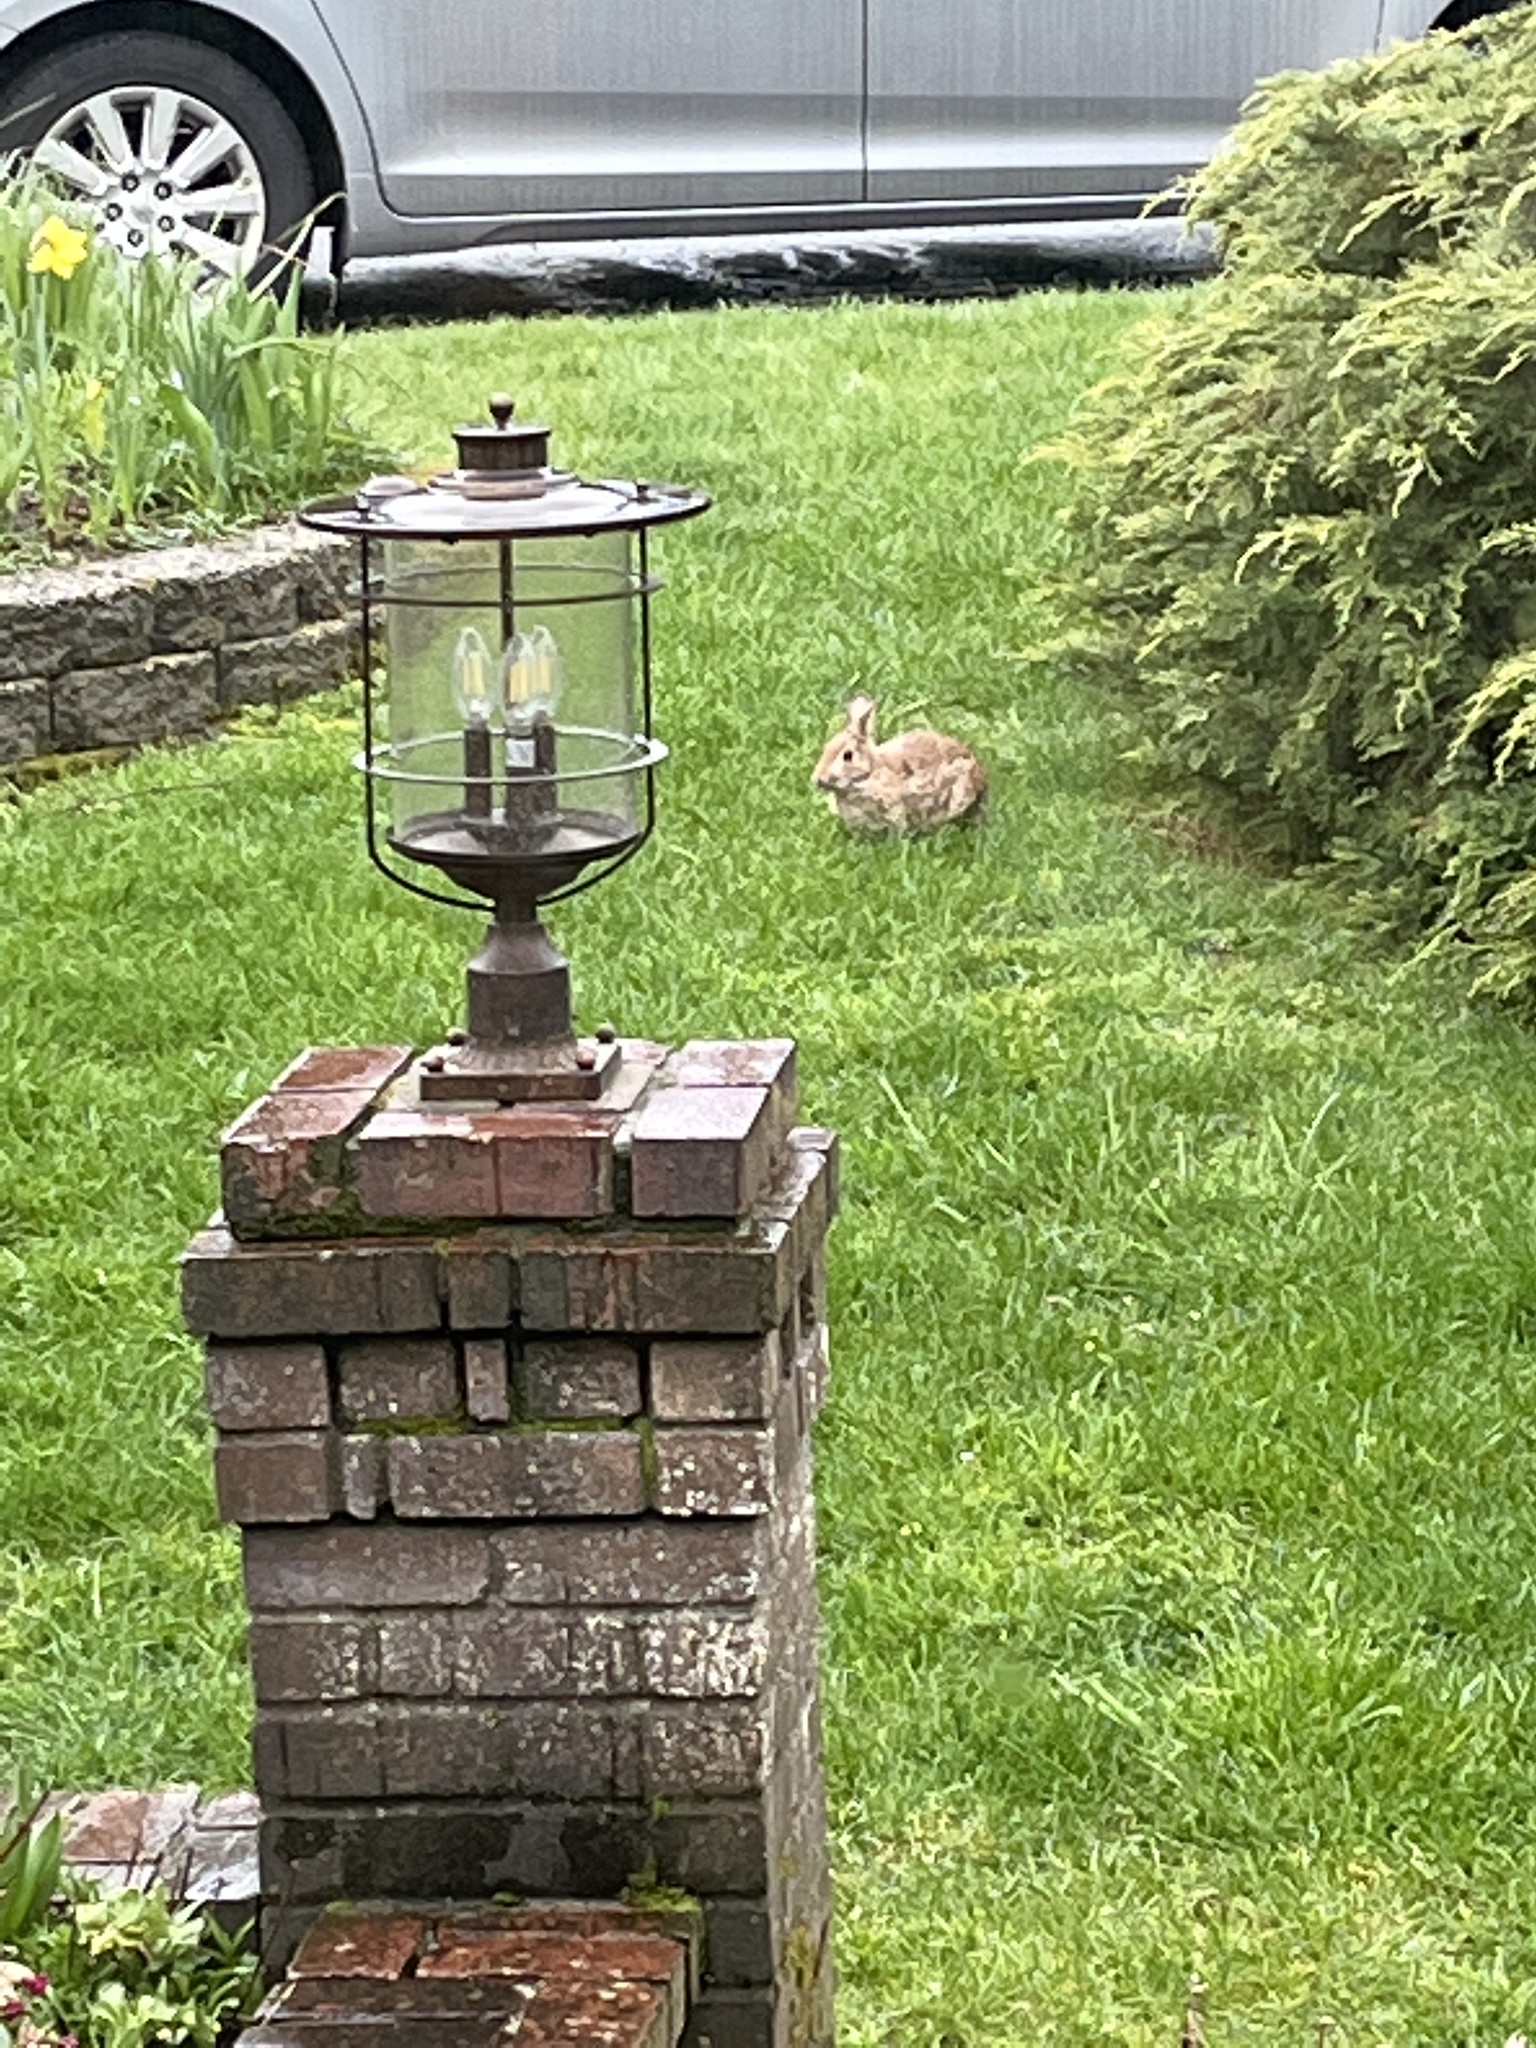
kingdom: Animalia
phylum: Chordata
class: Mammalia
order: Lagomorpha
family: Leporidae
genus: Sylvilagus
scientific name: Sylvilagus floridanus
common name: Eastern cottontail
